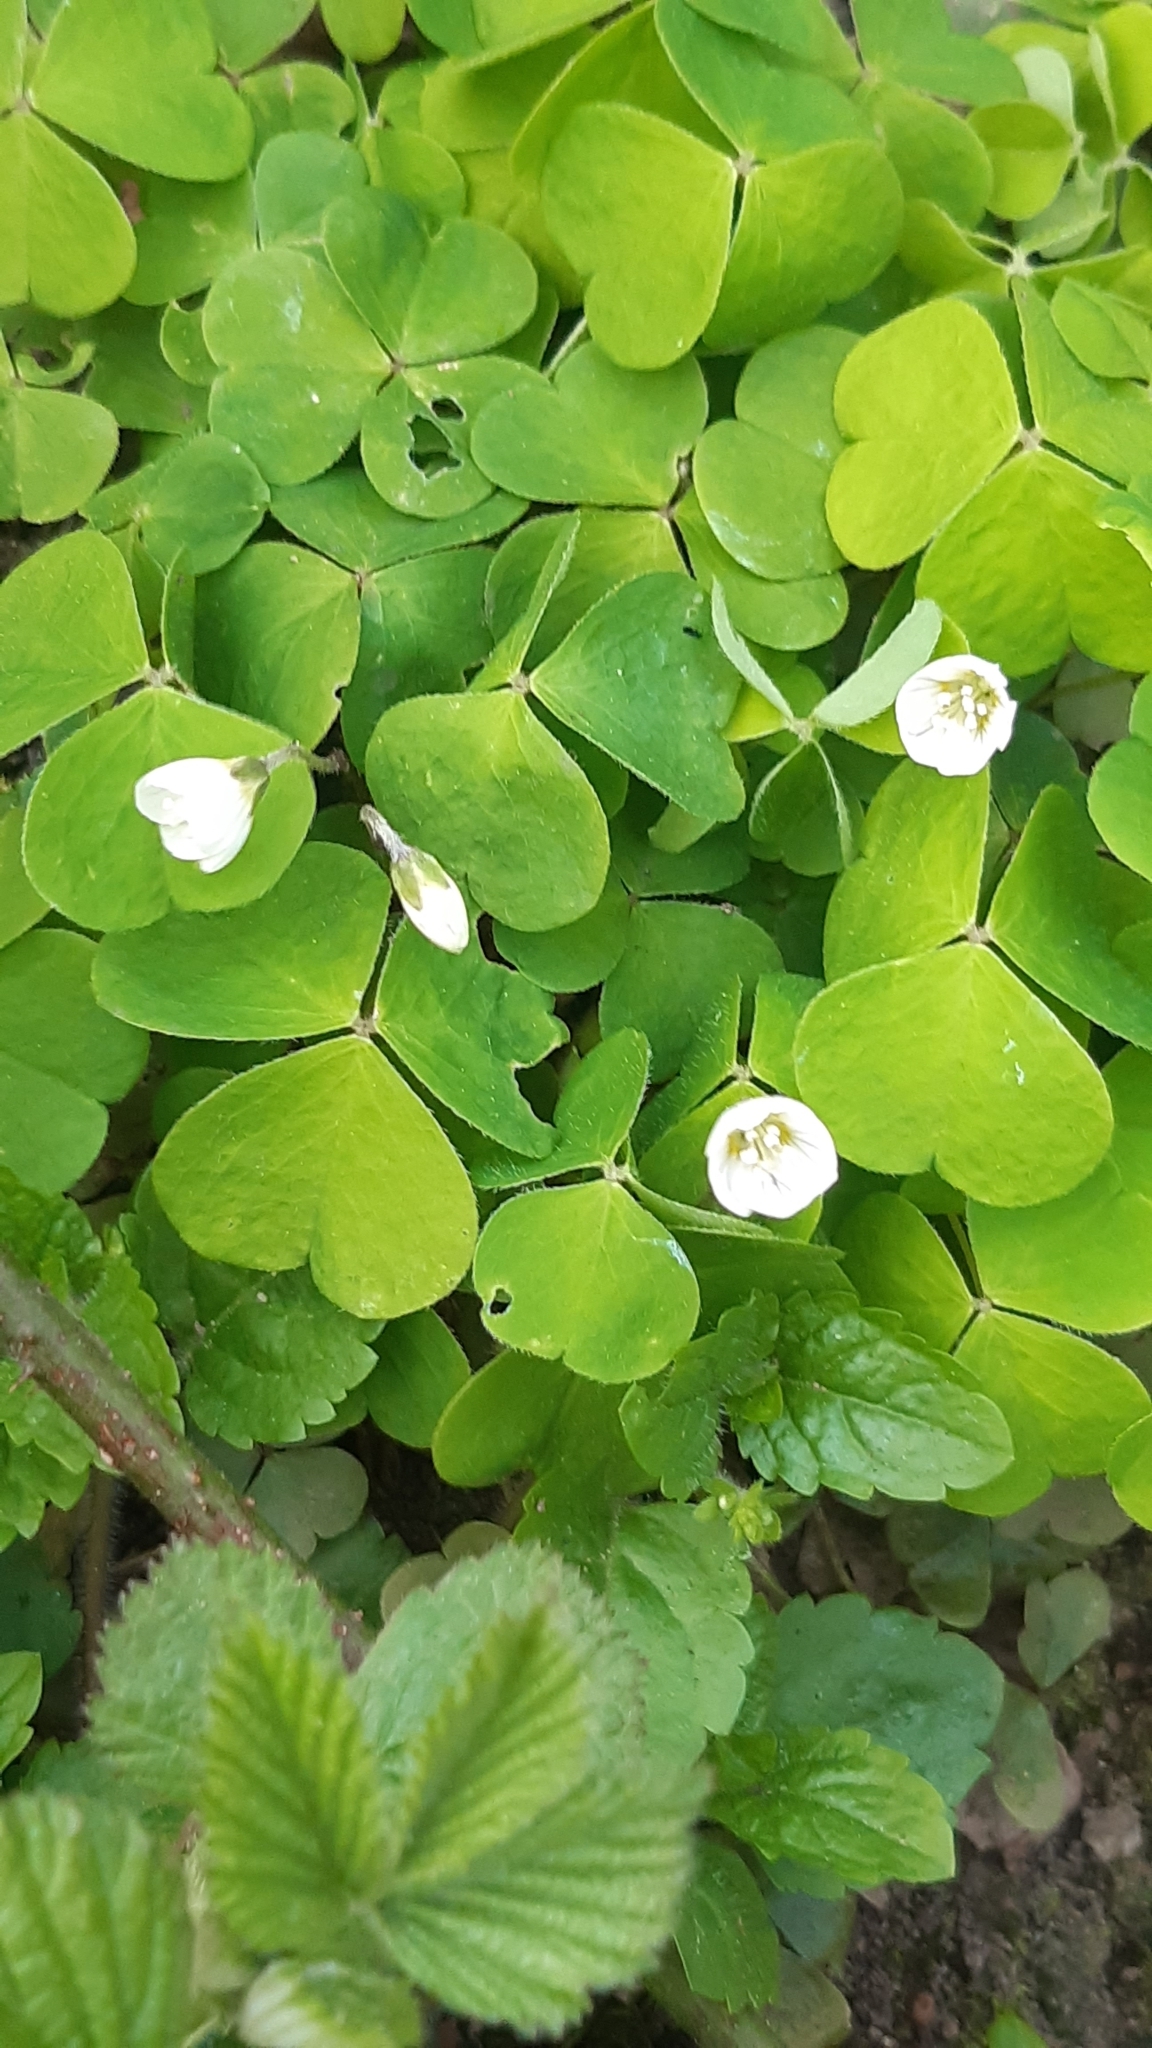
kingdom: Plantae
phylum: Tracheophyta
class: Magnoliopsida
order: Oxalidales
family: Oxalidaceae
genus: Oxalis
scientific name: Oxalis acetosella
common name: Wood-sorrel
